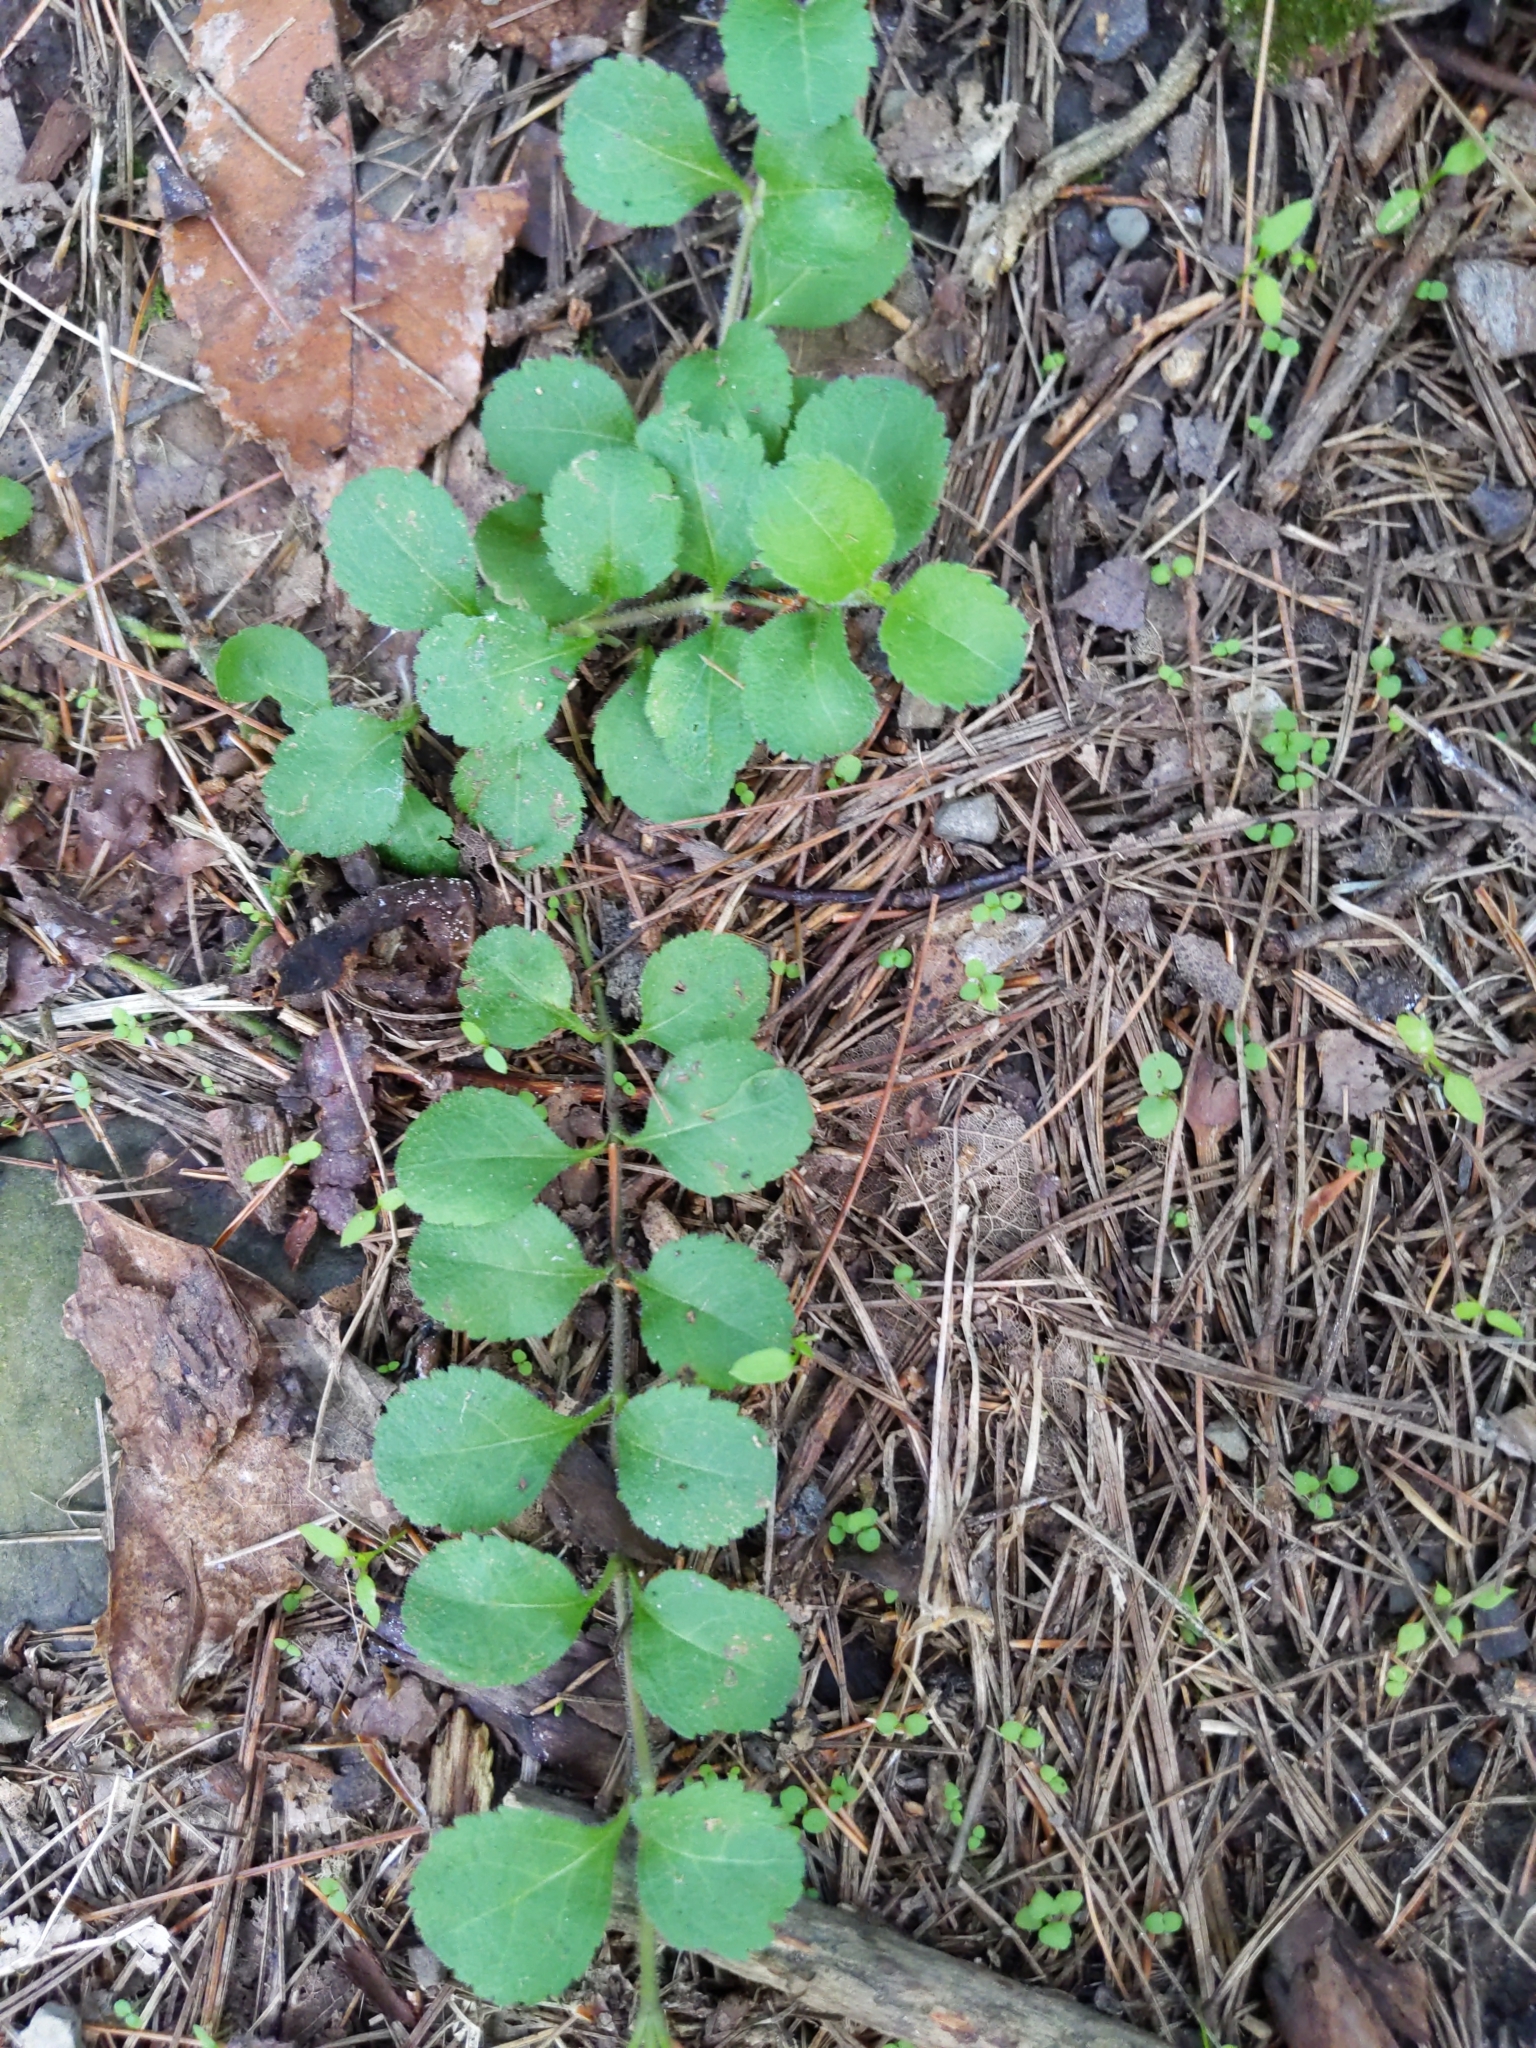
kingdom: Plantae
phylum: Tracheophyta
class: Magnoliopsida
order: Lamiales
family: Plantaginaceae
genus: Veronica
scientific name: Veronica officinalis
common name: Common speedwell
